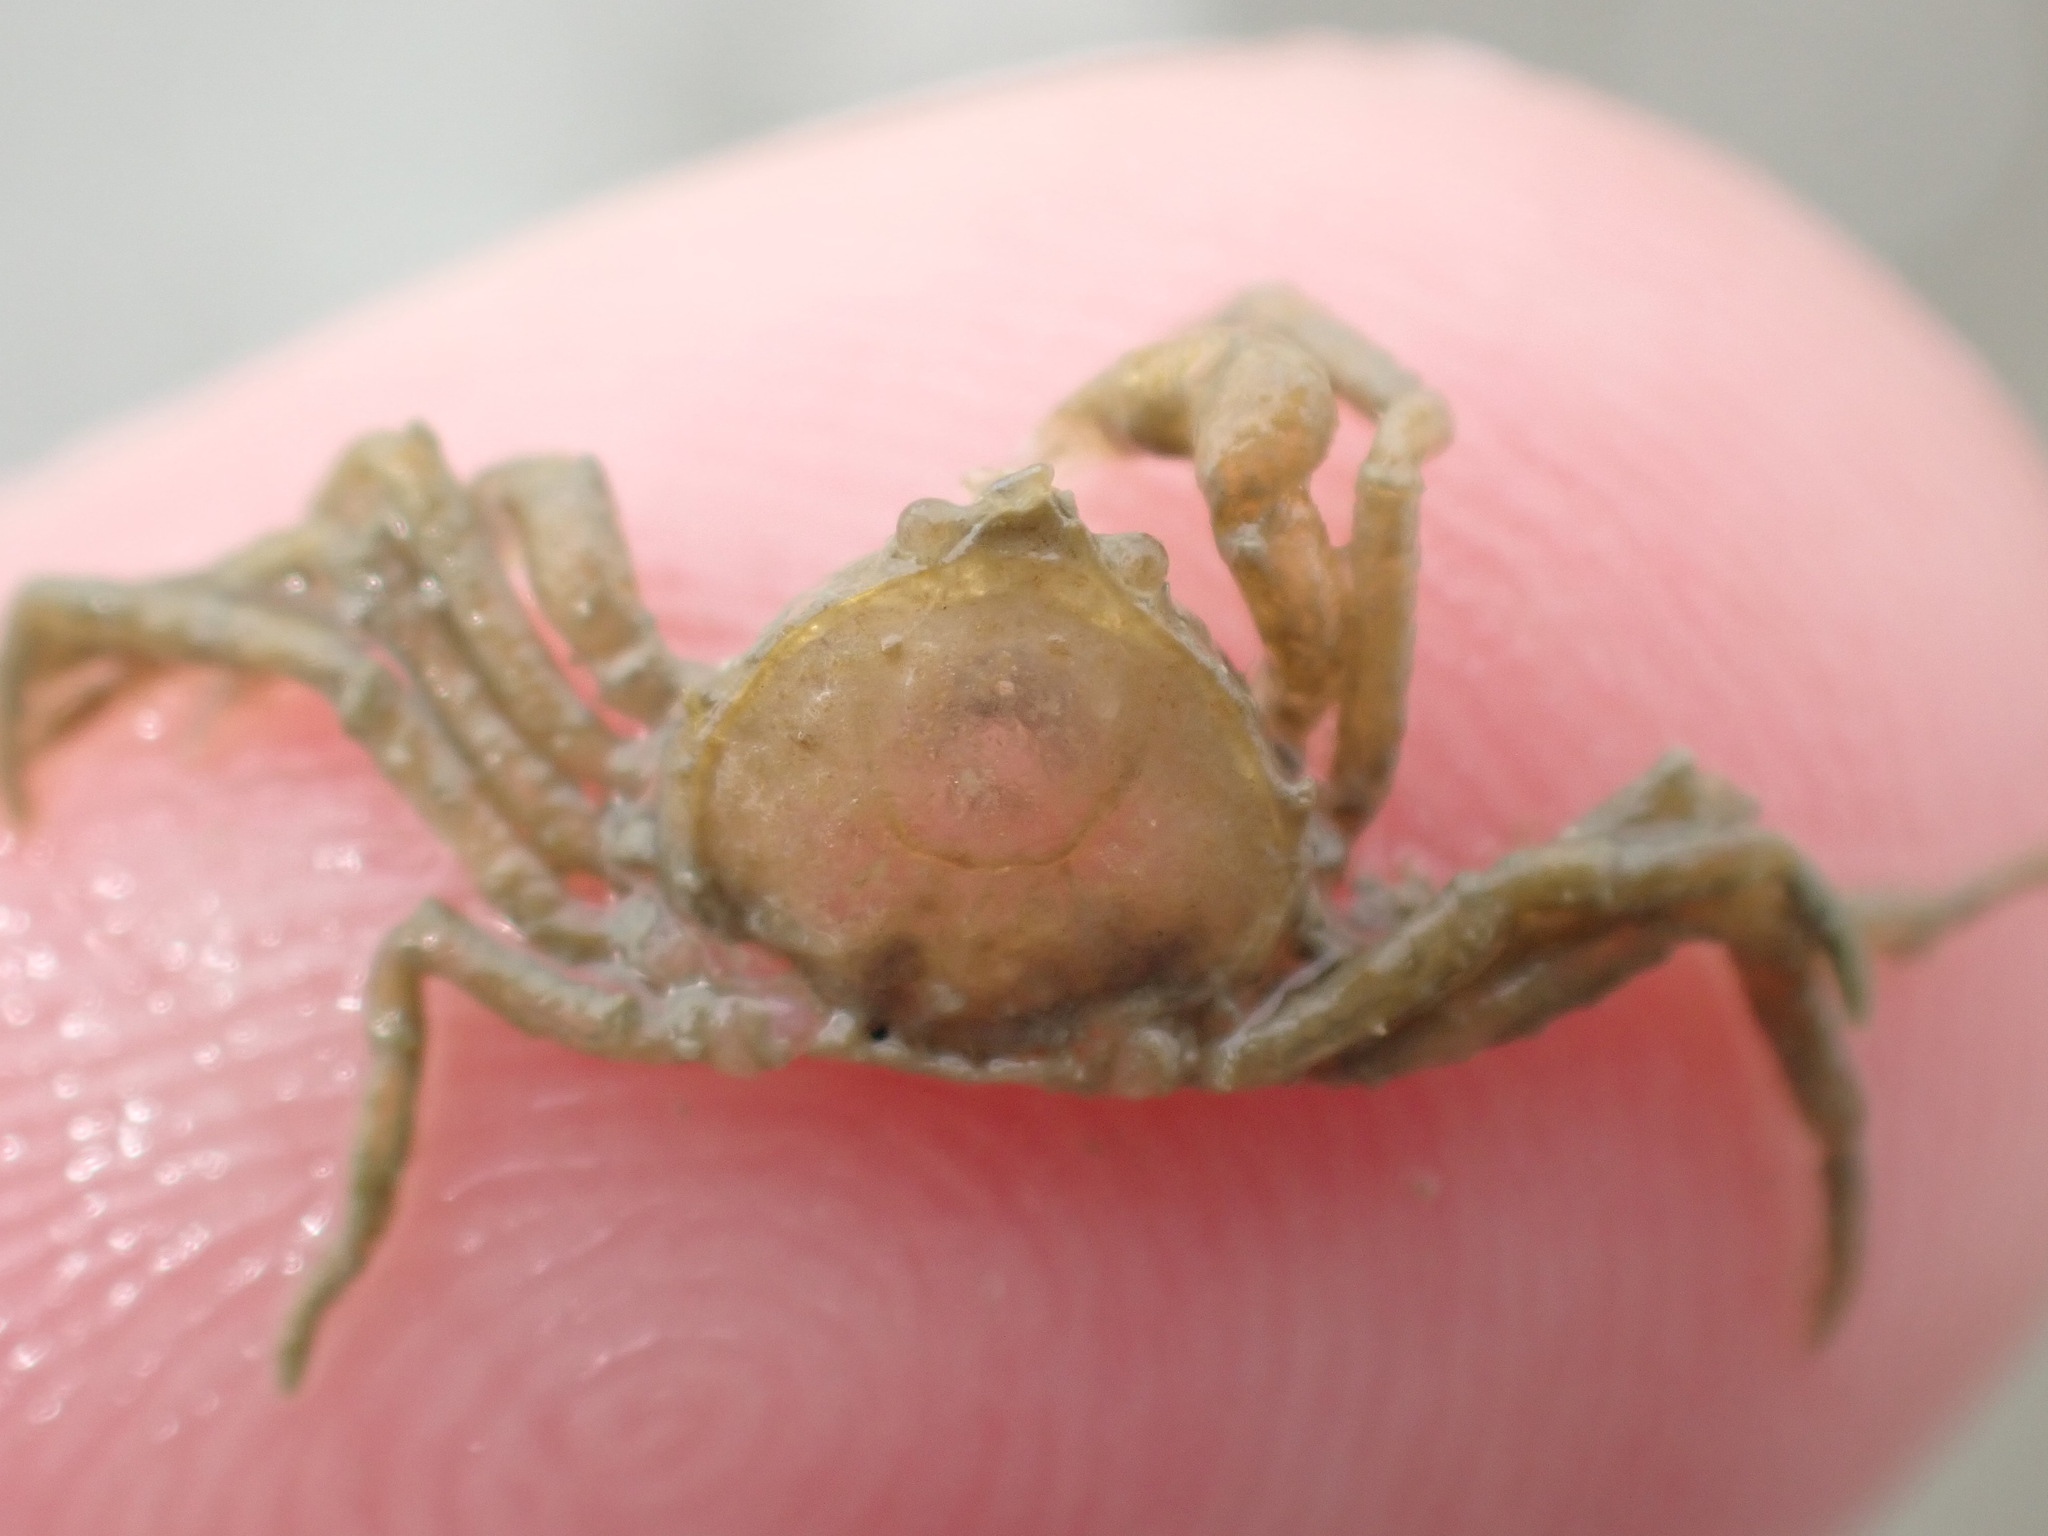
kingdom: Animalia
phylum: Arthropoda
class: Malacostraca
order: Decapoda
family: Hymenosomatidae
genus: Halicarcinus
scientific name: Halicarcinus varius
